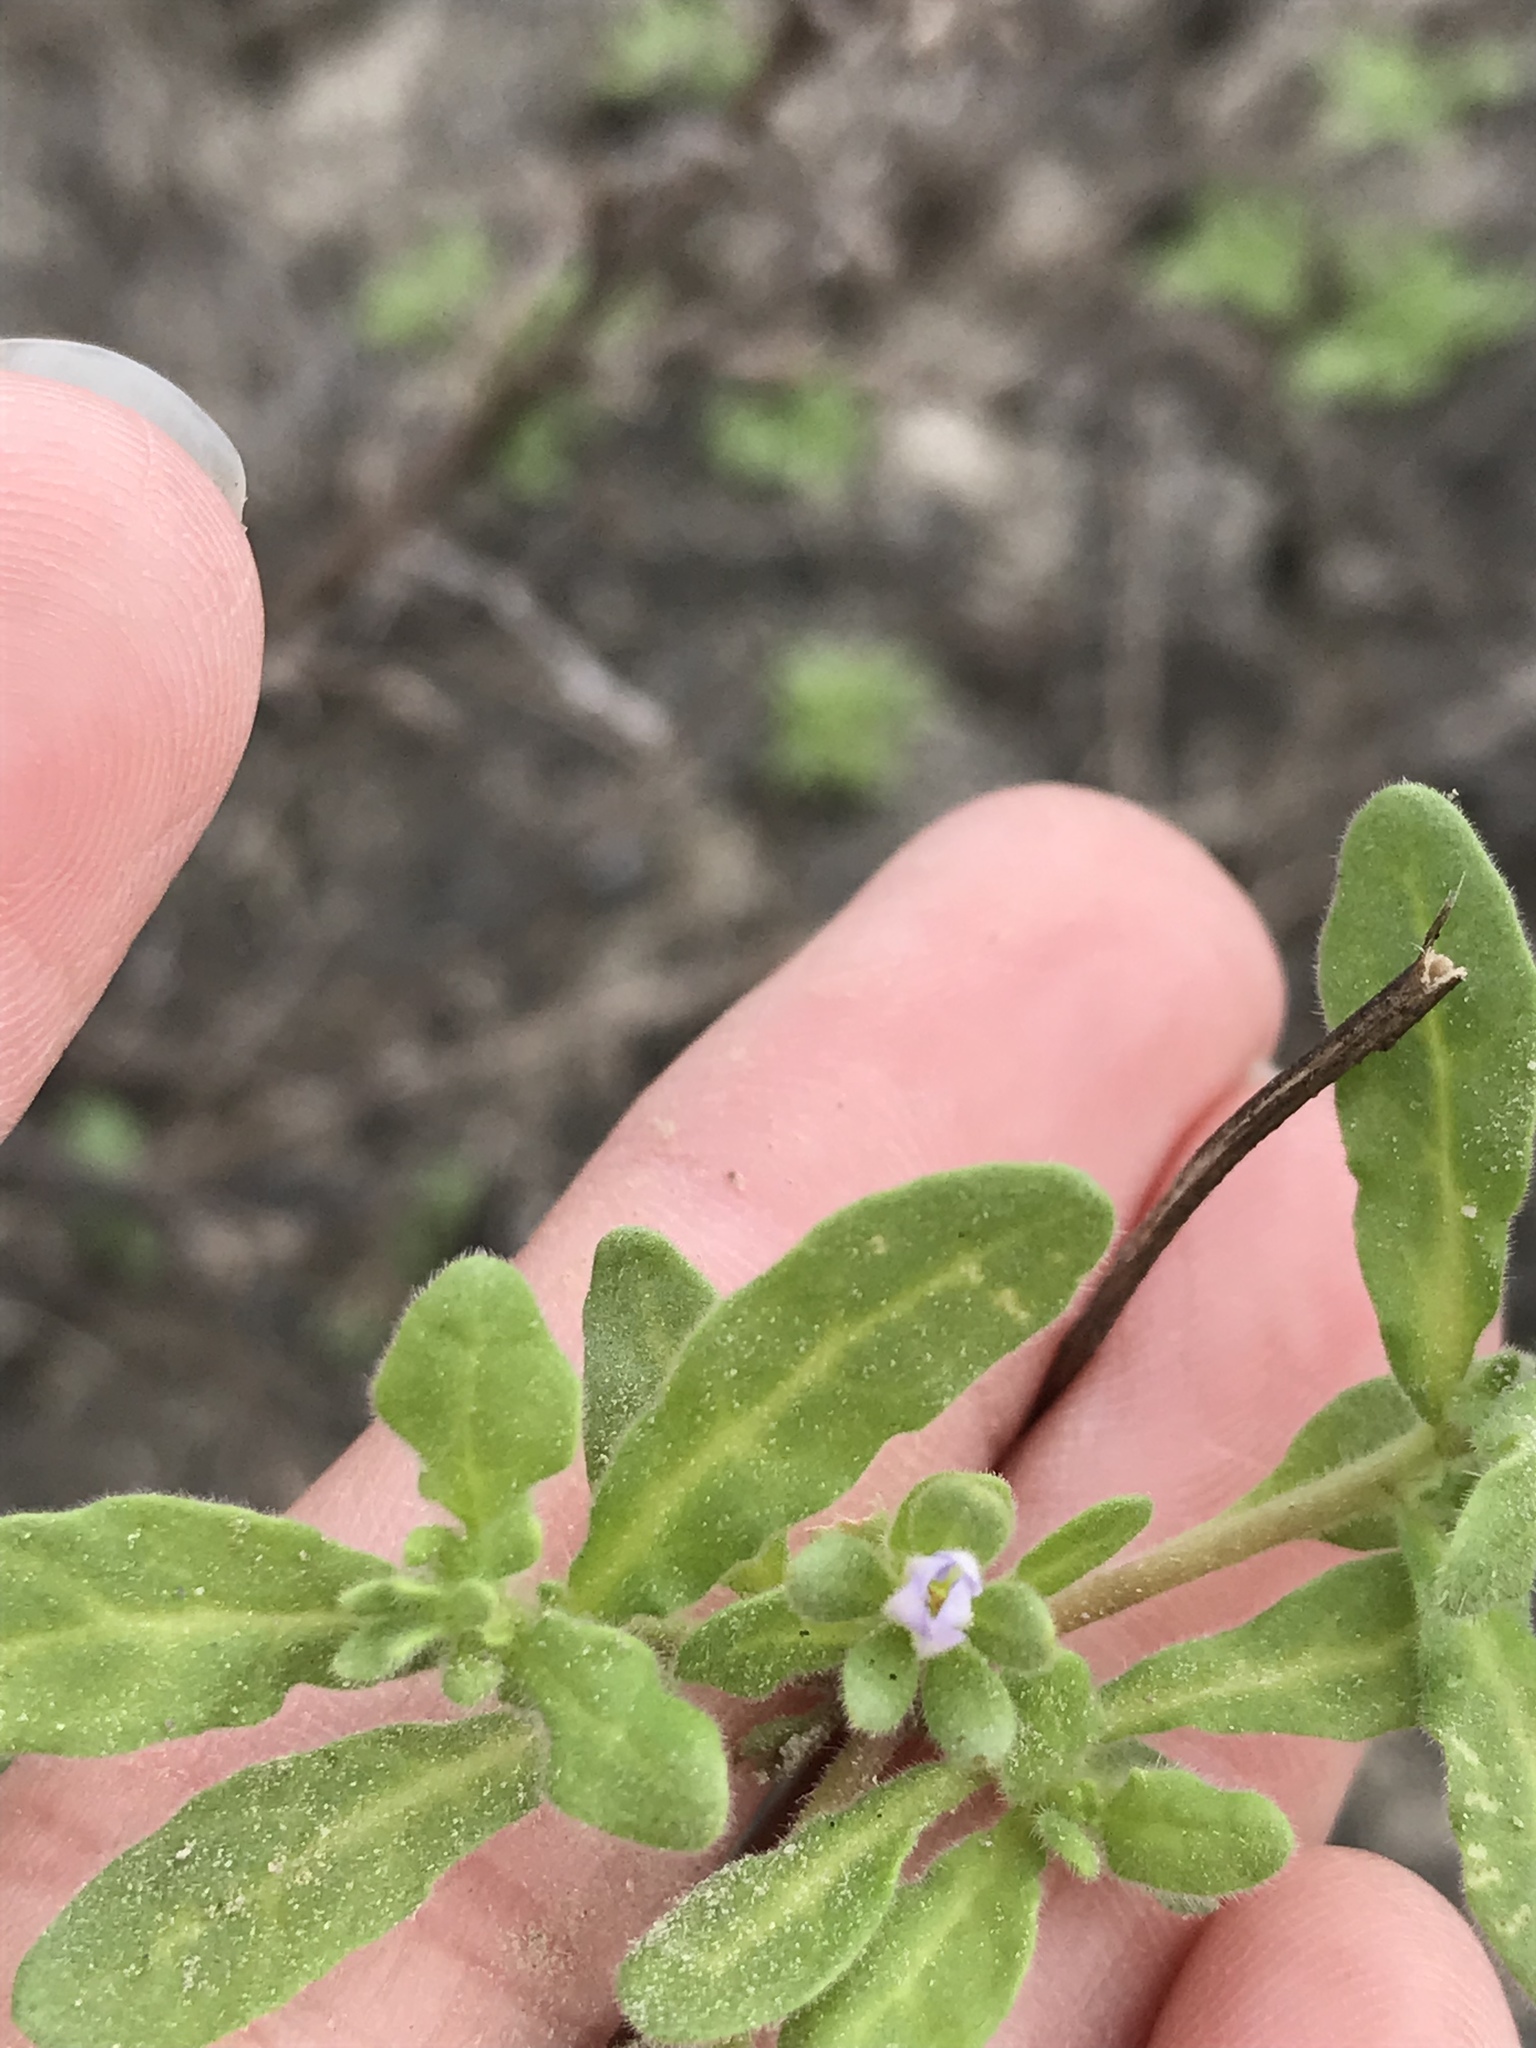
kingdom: Plantae
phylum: Tracheophyta
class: Magnoliopsida
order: Boraginales
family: Namaceae
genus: Nama
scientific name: Nama stenocarpa
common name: Mud fiddleleaf
